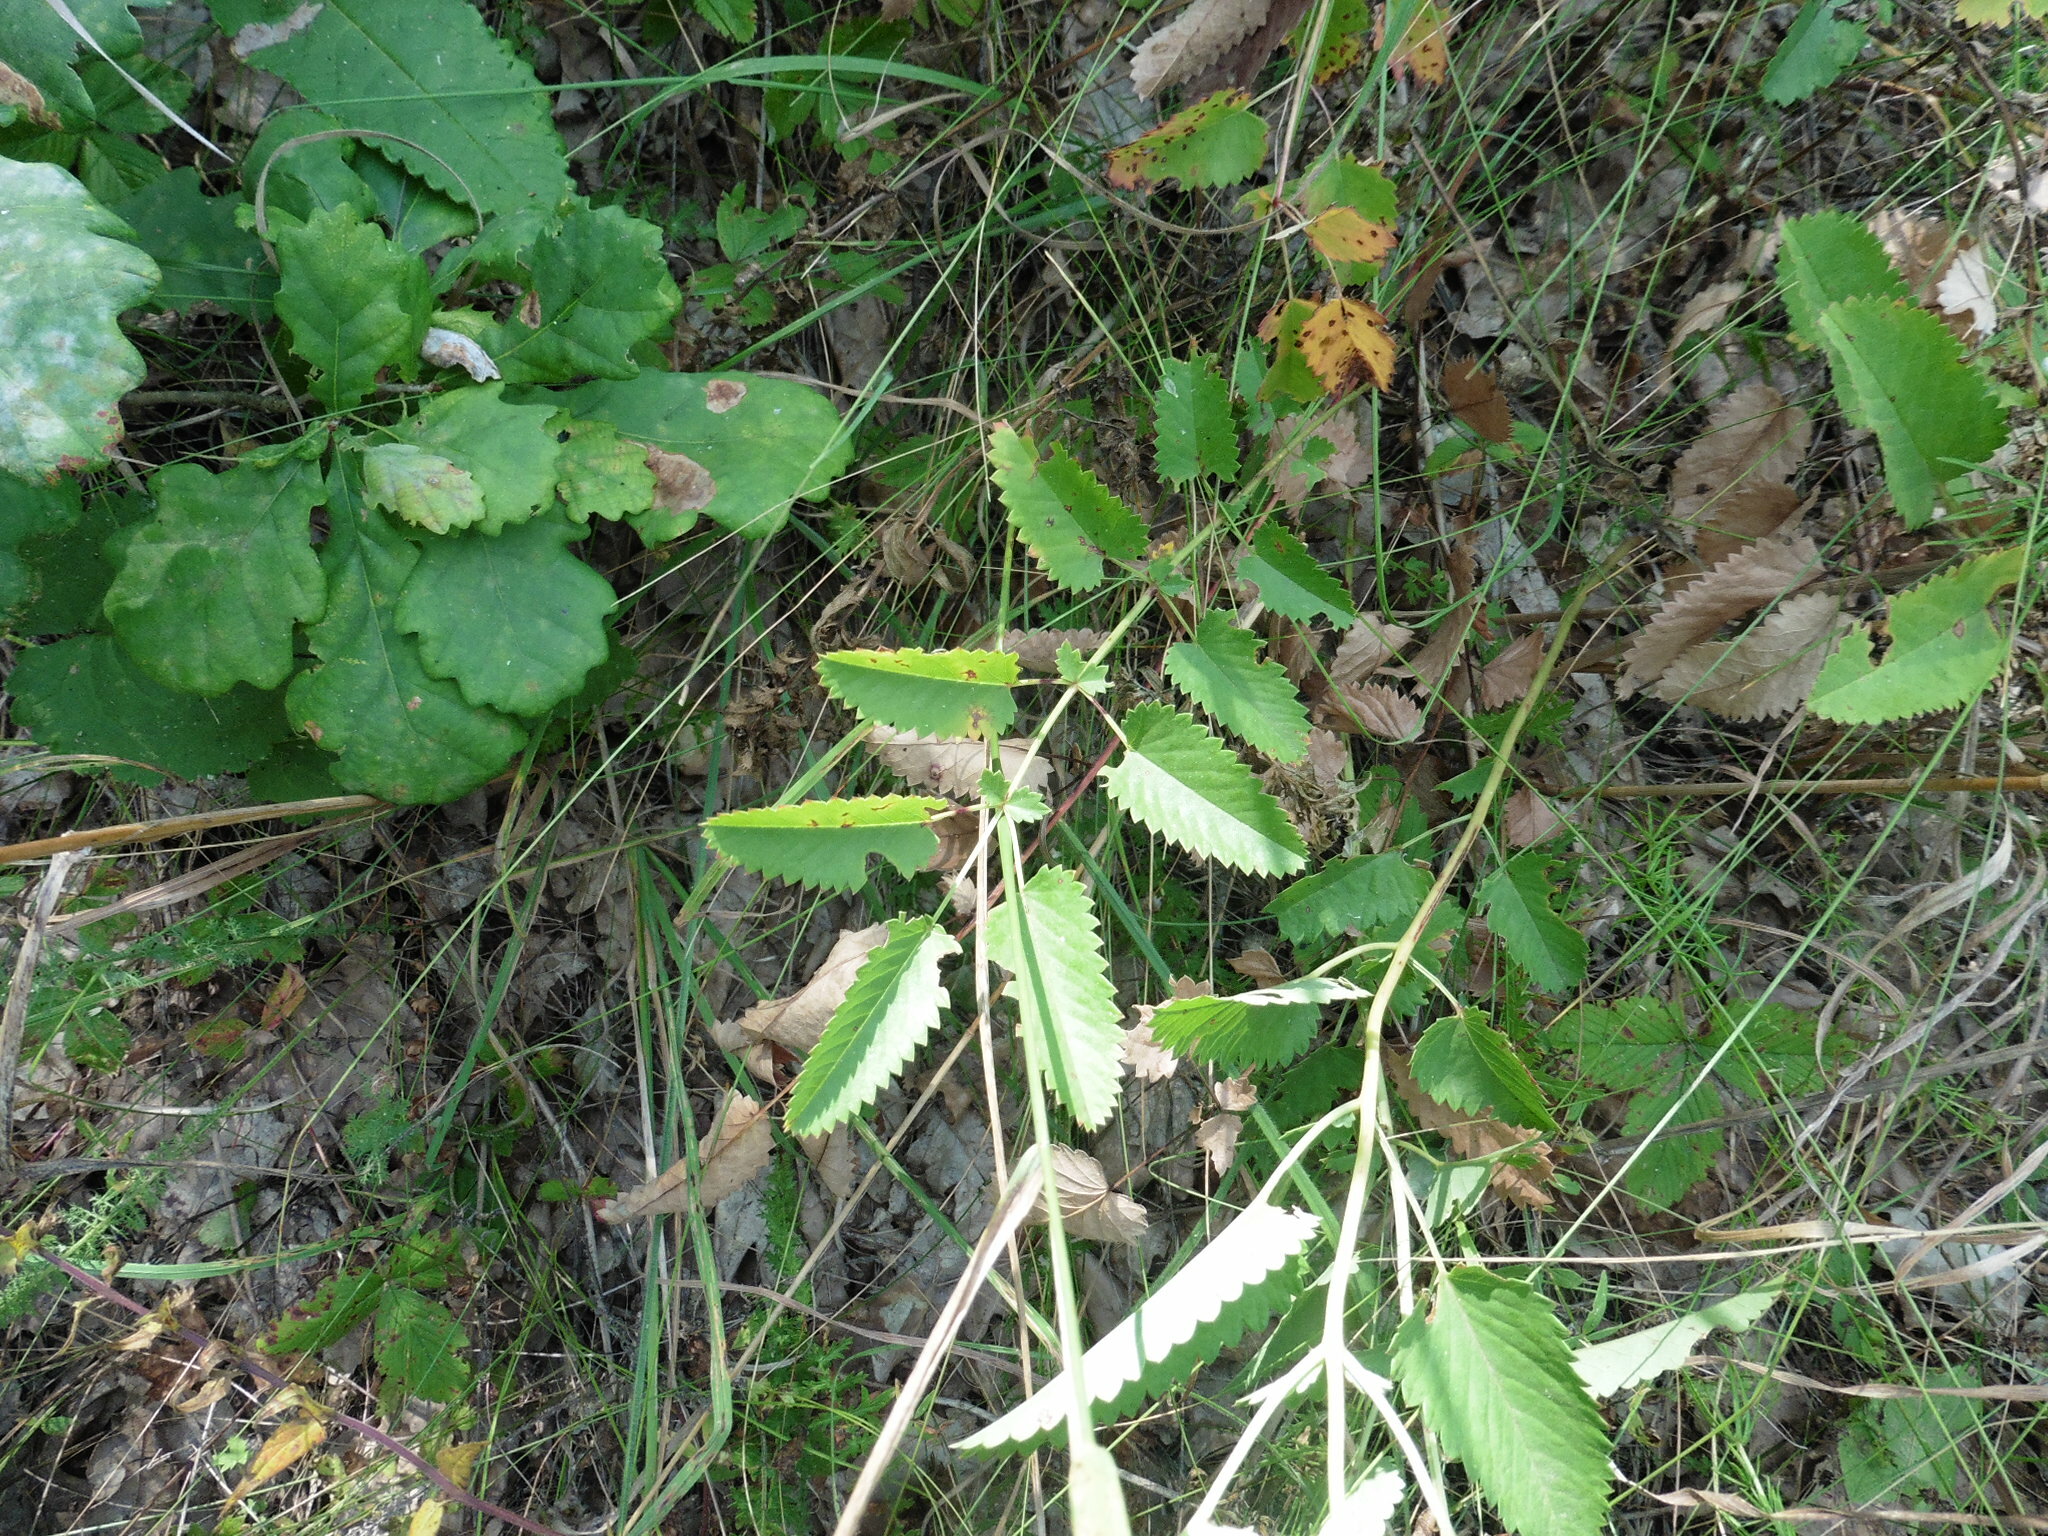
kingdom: Plantae
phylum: Tracheophyta
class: Magnoliopsida
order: Rosales
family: Rosaceae
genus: Sanguisorba
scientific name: Sanguisorba officinalis
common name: Great burnet
